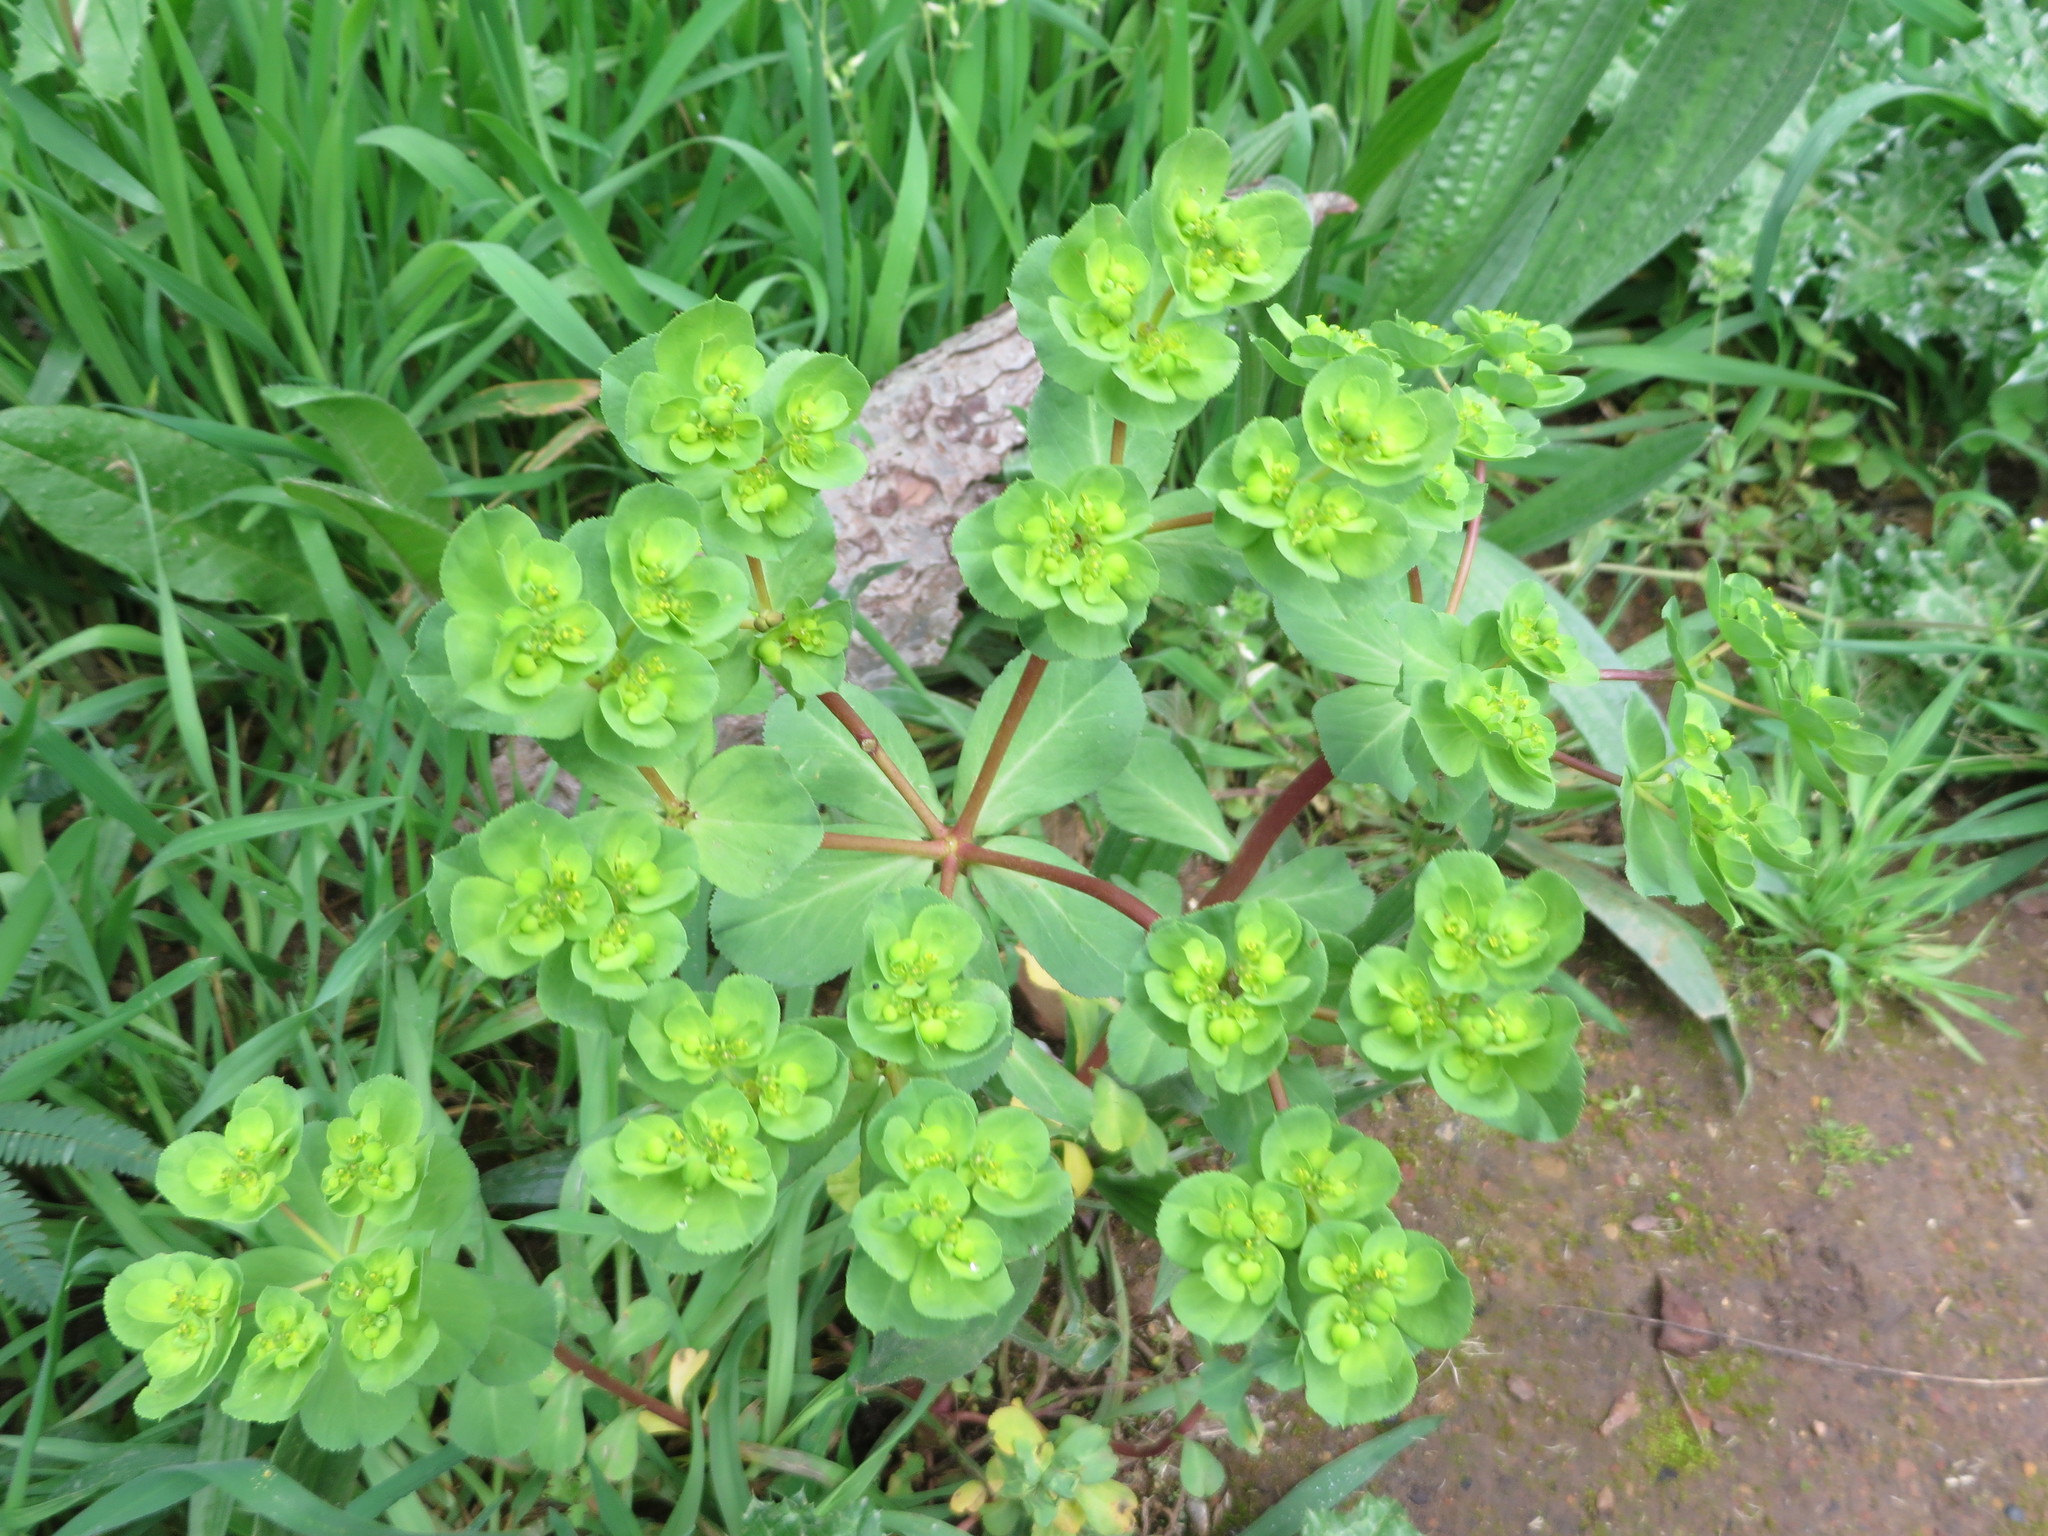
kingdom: Plantae
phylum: Tracheophyta
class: Magnoliopsida
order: Malpighiales
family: Euphorbiaceae
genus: Euphorbia
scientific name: Euphorbia helioscopia
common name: Sun spurge
